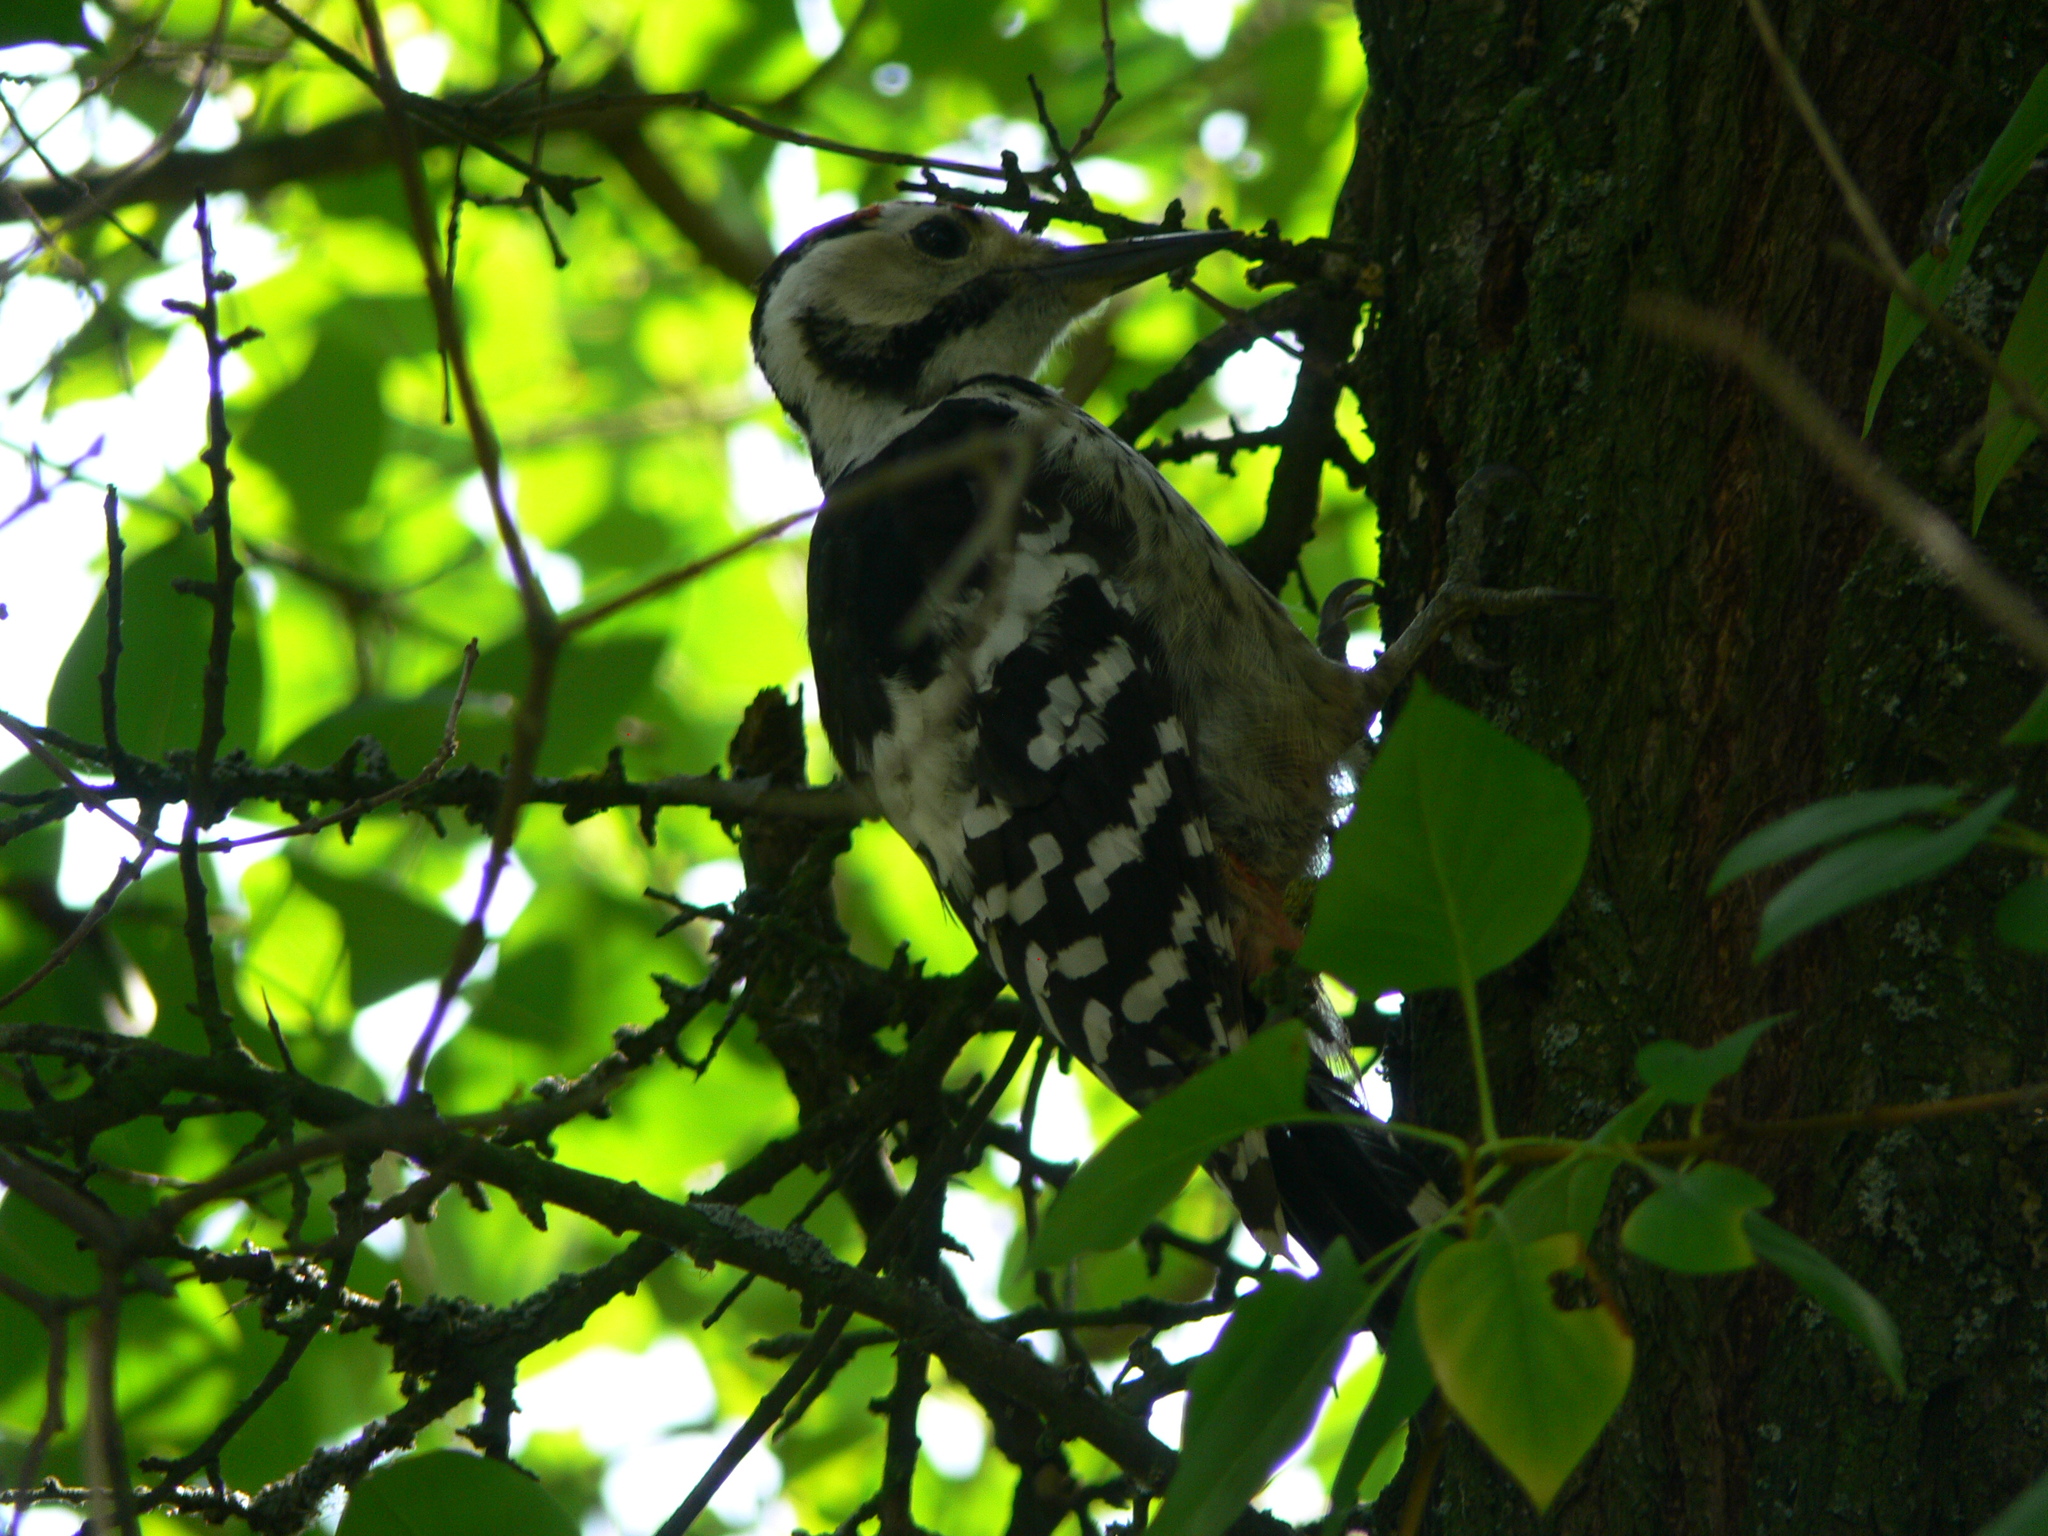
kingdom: Animalia
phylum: Chordata
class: Aves
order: Piciformes
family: Picidae
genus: Dendrocopos
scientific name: Dendrocopos leucotos
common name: White-backed woodpecker
